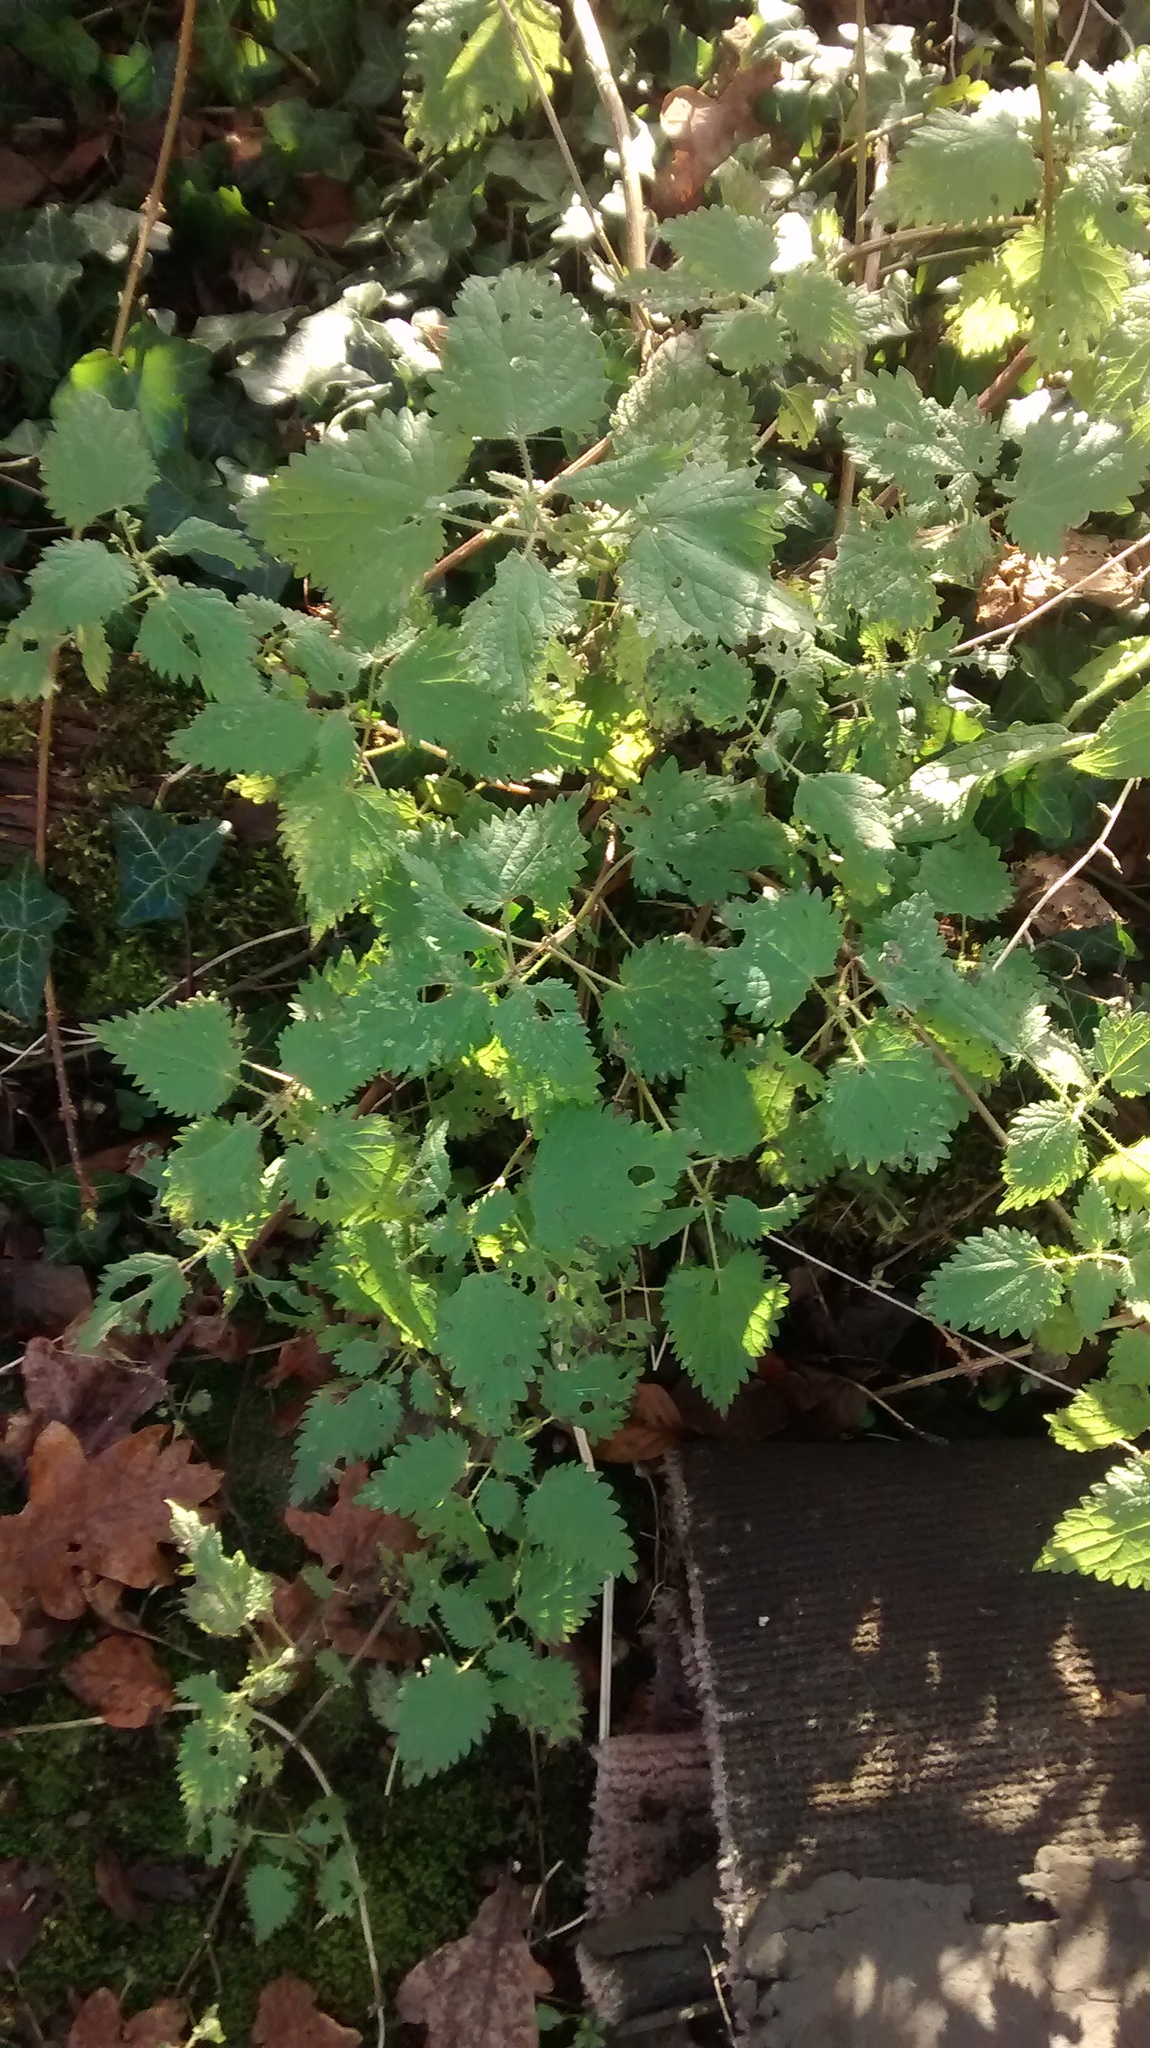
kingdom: Plantae
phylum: Tracheophyta
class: Magnoliopsida
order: Rosales
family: Urticaceae
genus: Urtica
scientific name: Urtica dioica
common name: Common nettle
